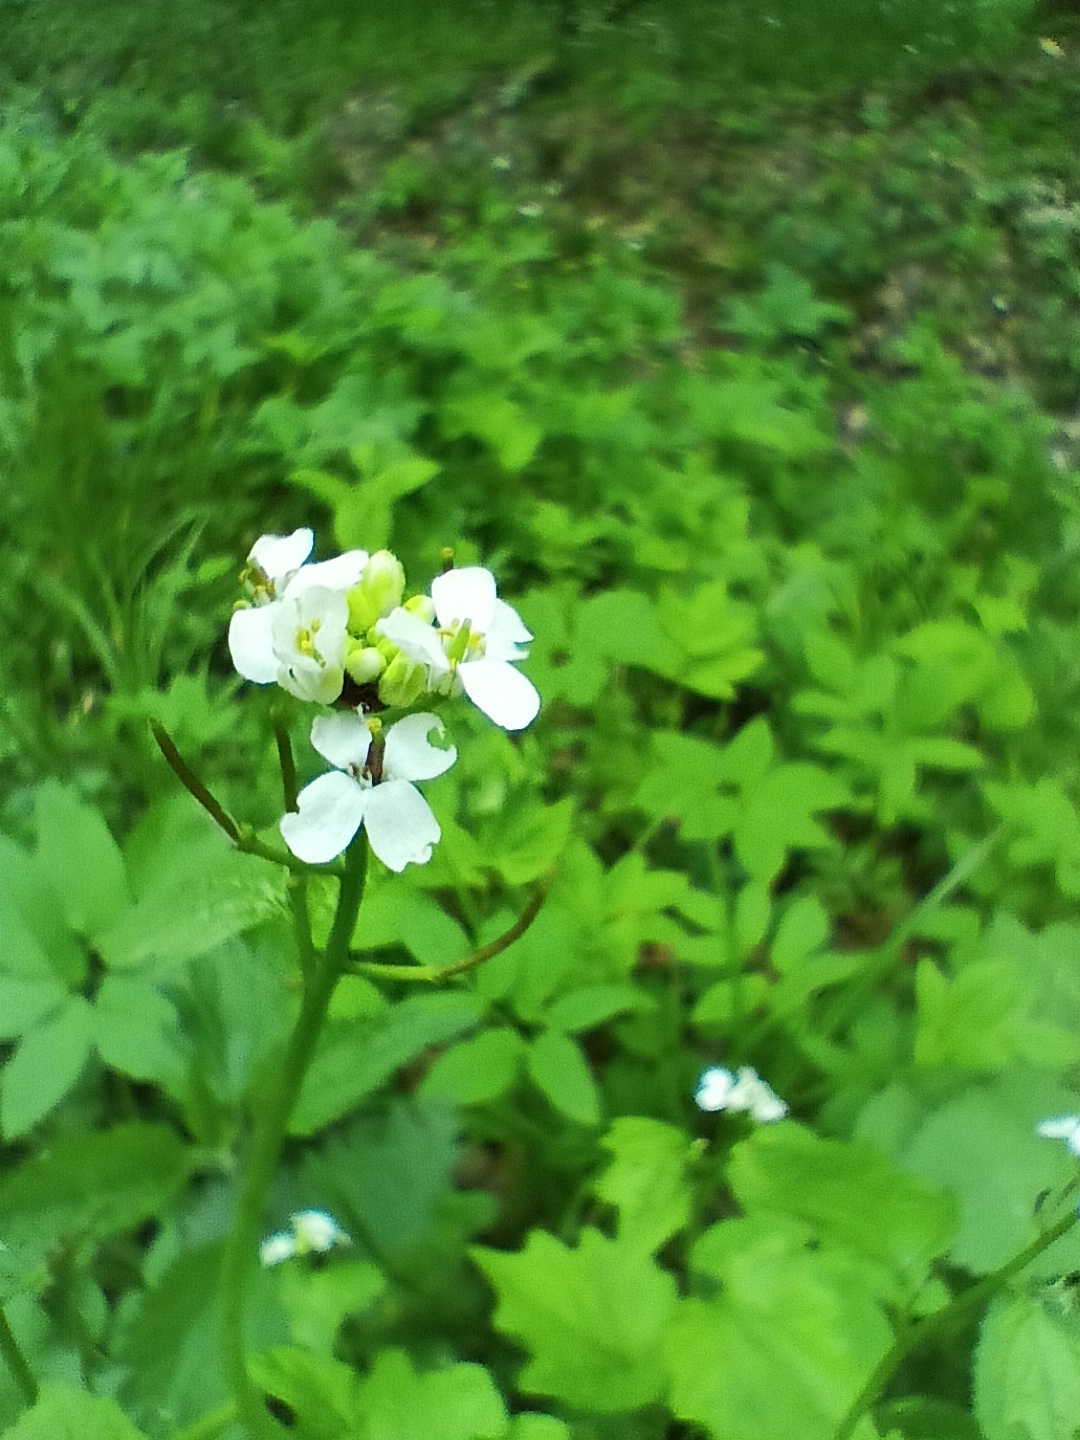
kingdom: Plantae
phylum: Tracheophyta
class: Magnoliopsida
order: Brassicales
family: Brassicaceae
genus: Alliaria
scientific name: Alliaria petiolata
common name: Garlic mustard
